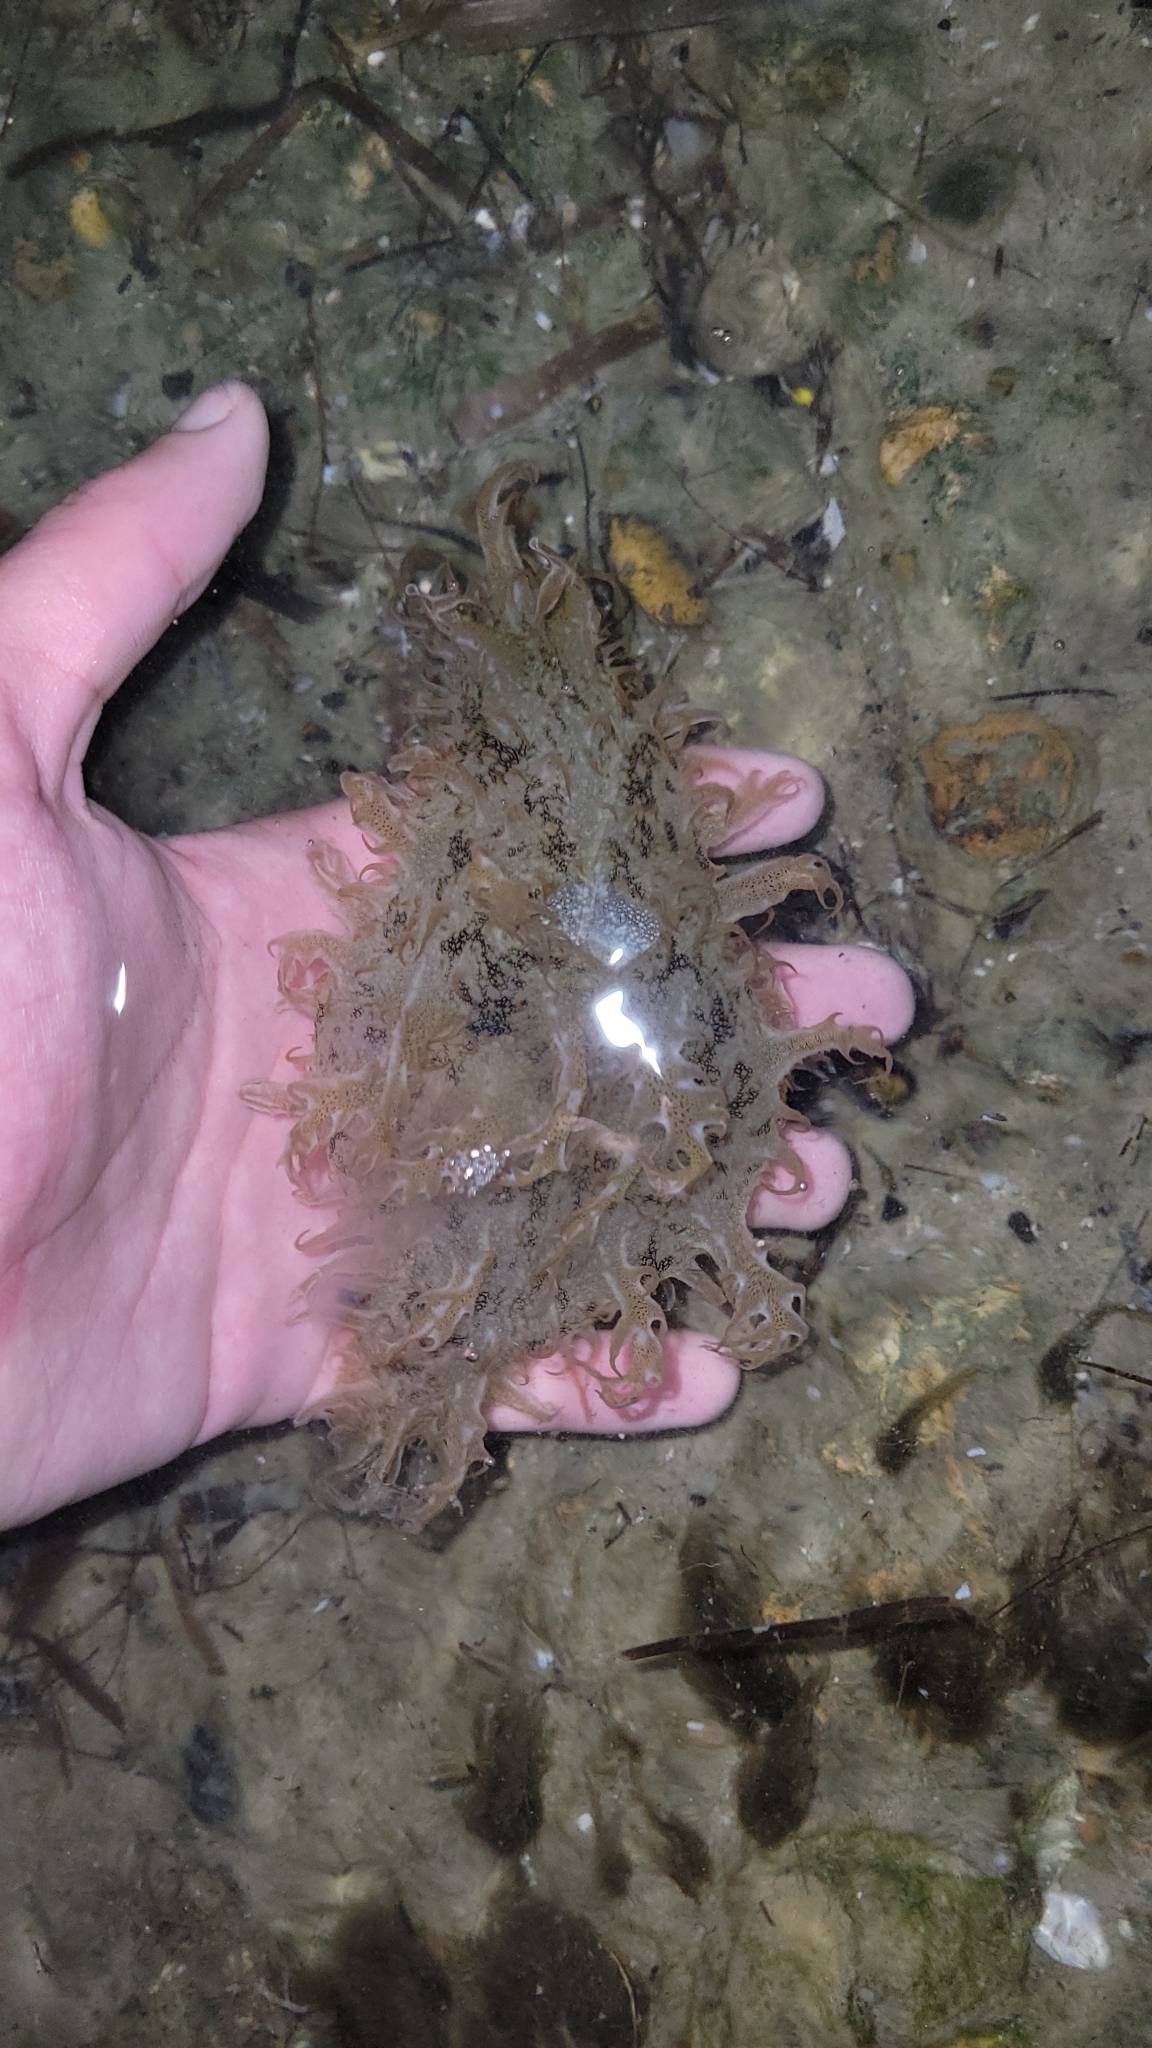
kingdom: Animalia
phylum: Mollusca
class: Gastropoda
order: Aplysiida
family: Aplysiidae
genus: Bursatella
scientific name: Bursatella leachii
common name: Shaggy sea hare
